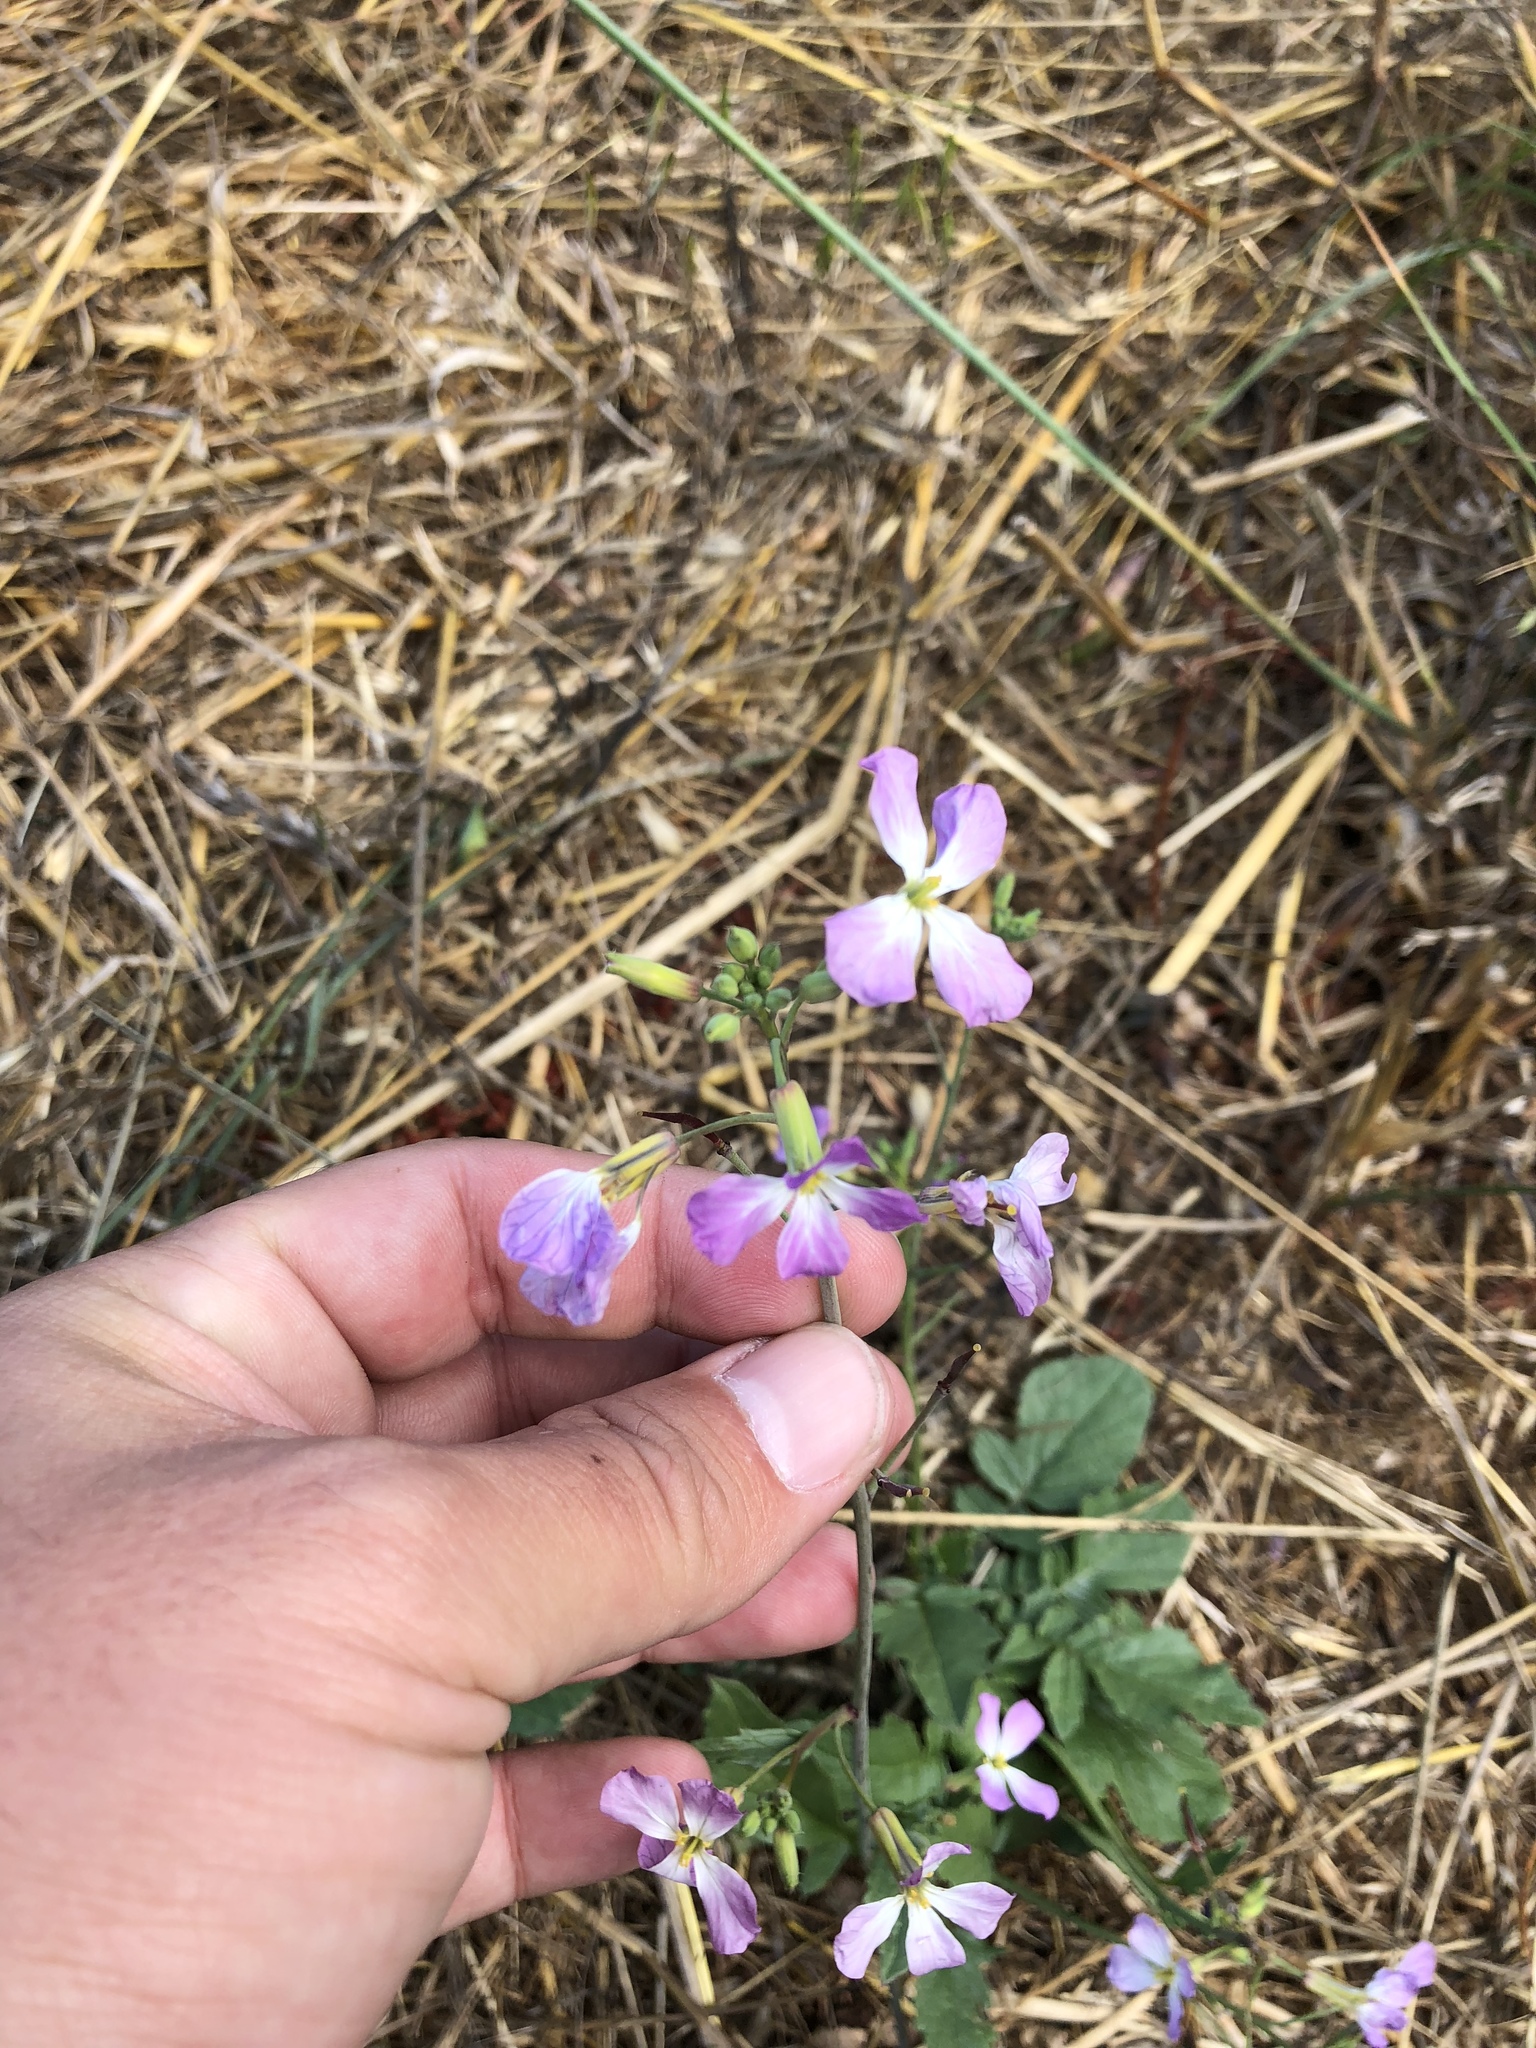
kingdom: Plantae
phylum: Tracheophyta
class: Magnoliopsida
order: Brassicales
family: Brassicaceae
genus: Raphanus
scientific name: Raphanus sativus
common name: Cultivated radish
